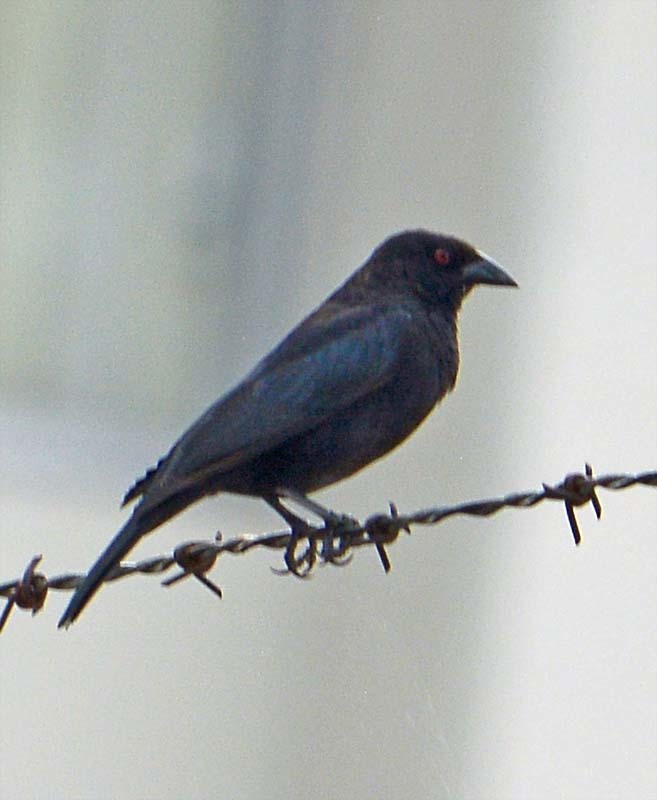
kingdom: Animalia
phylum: Chordata
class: Aves
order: Passeriformes
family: Icteridae
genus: Molothrus
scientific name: Molothrus aeneus
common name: Bronzed cowbird
